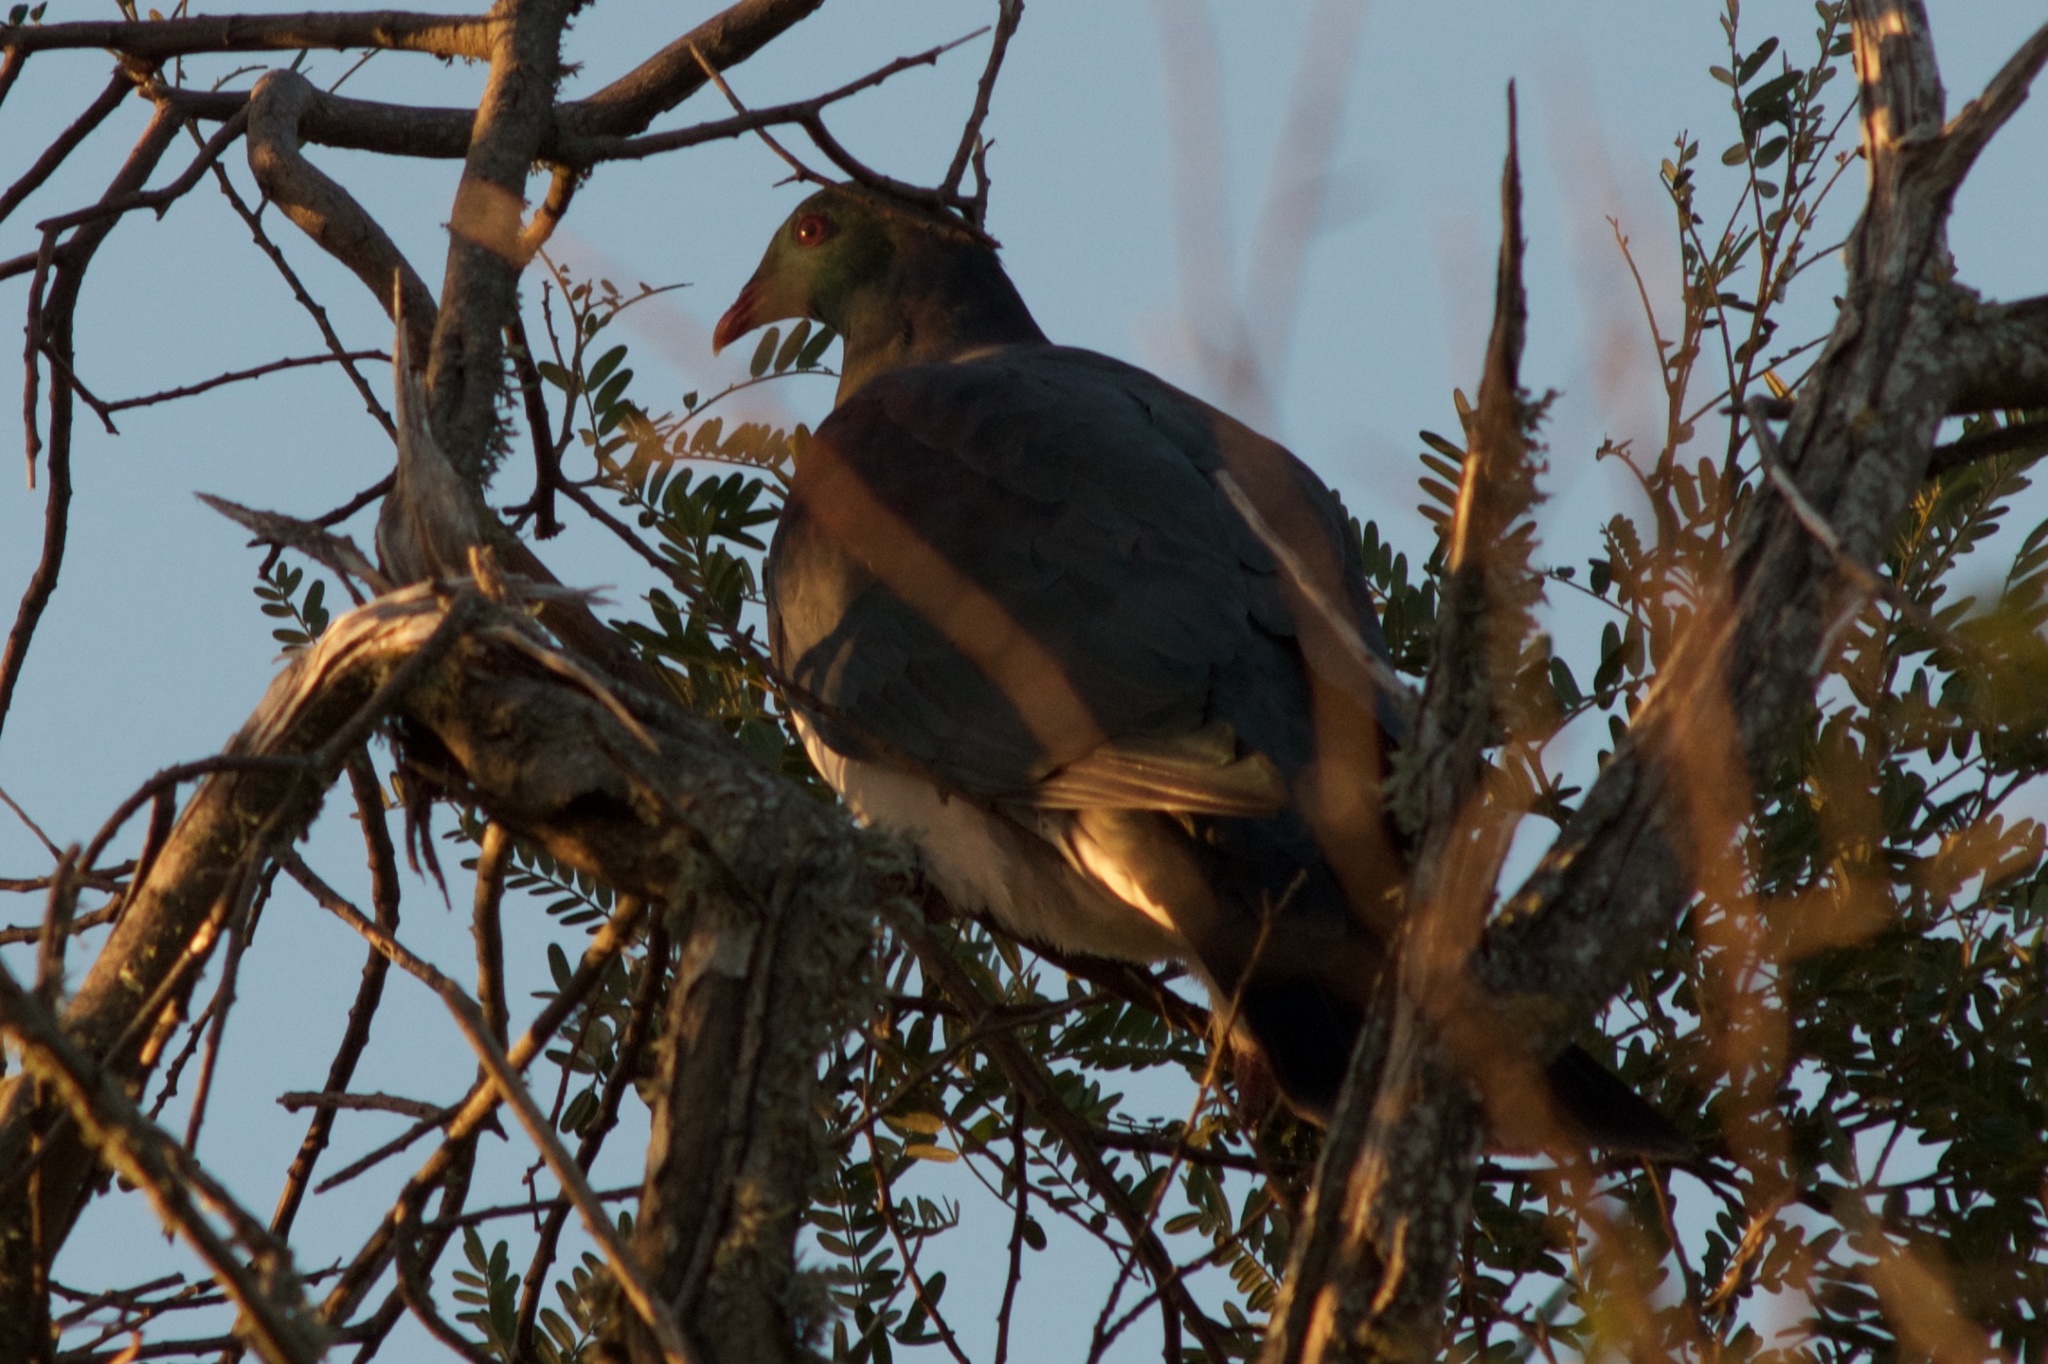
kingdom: Animalia
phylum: Chordata
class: Aves
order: Columbiformes
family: Columbidae
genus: Hemiphaga
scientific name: Hemiphaga novaeseelandiae
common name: New zealand pigeon
